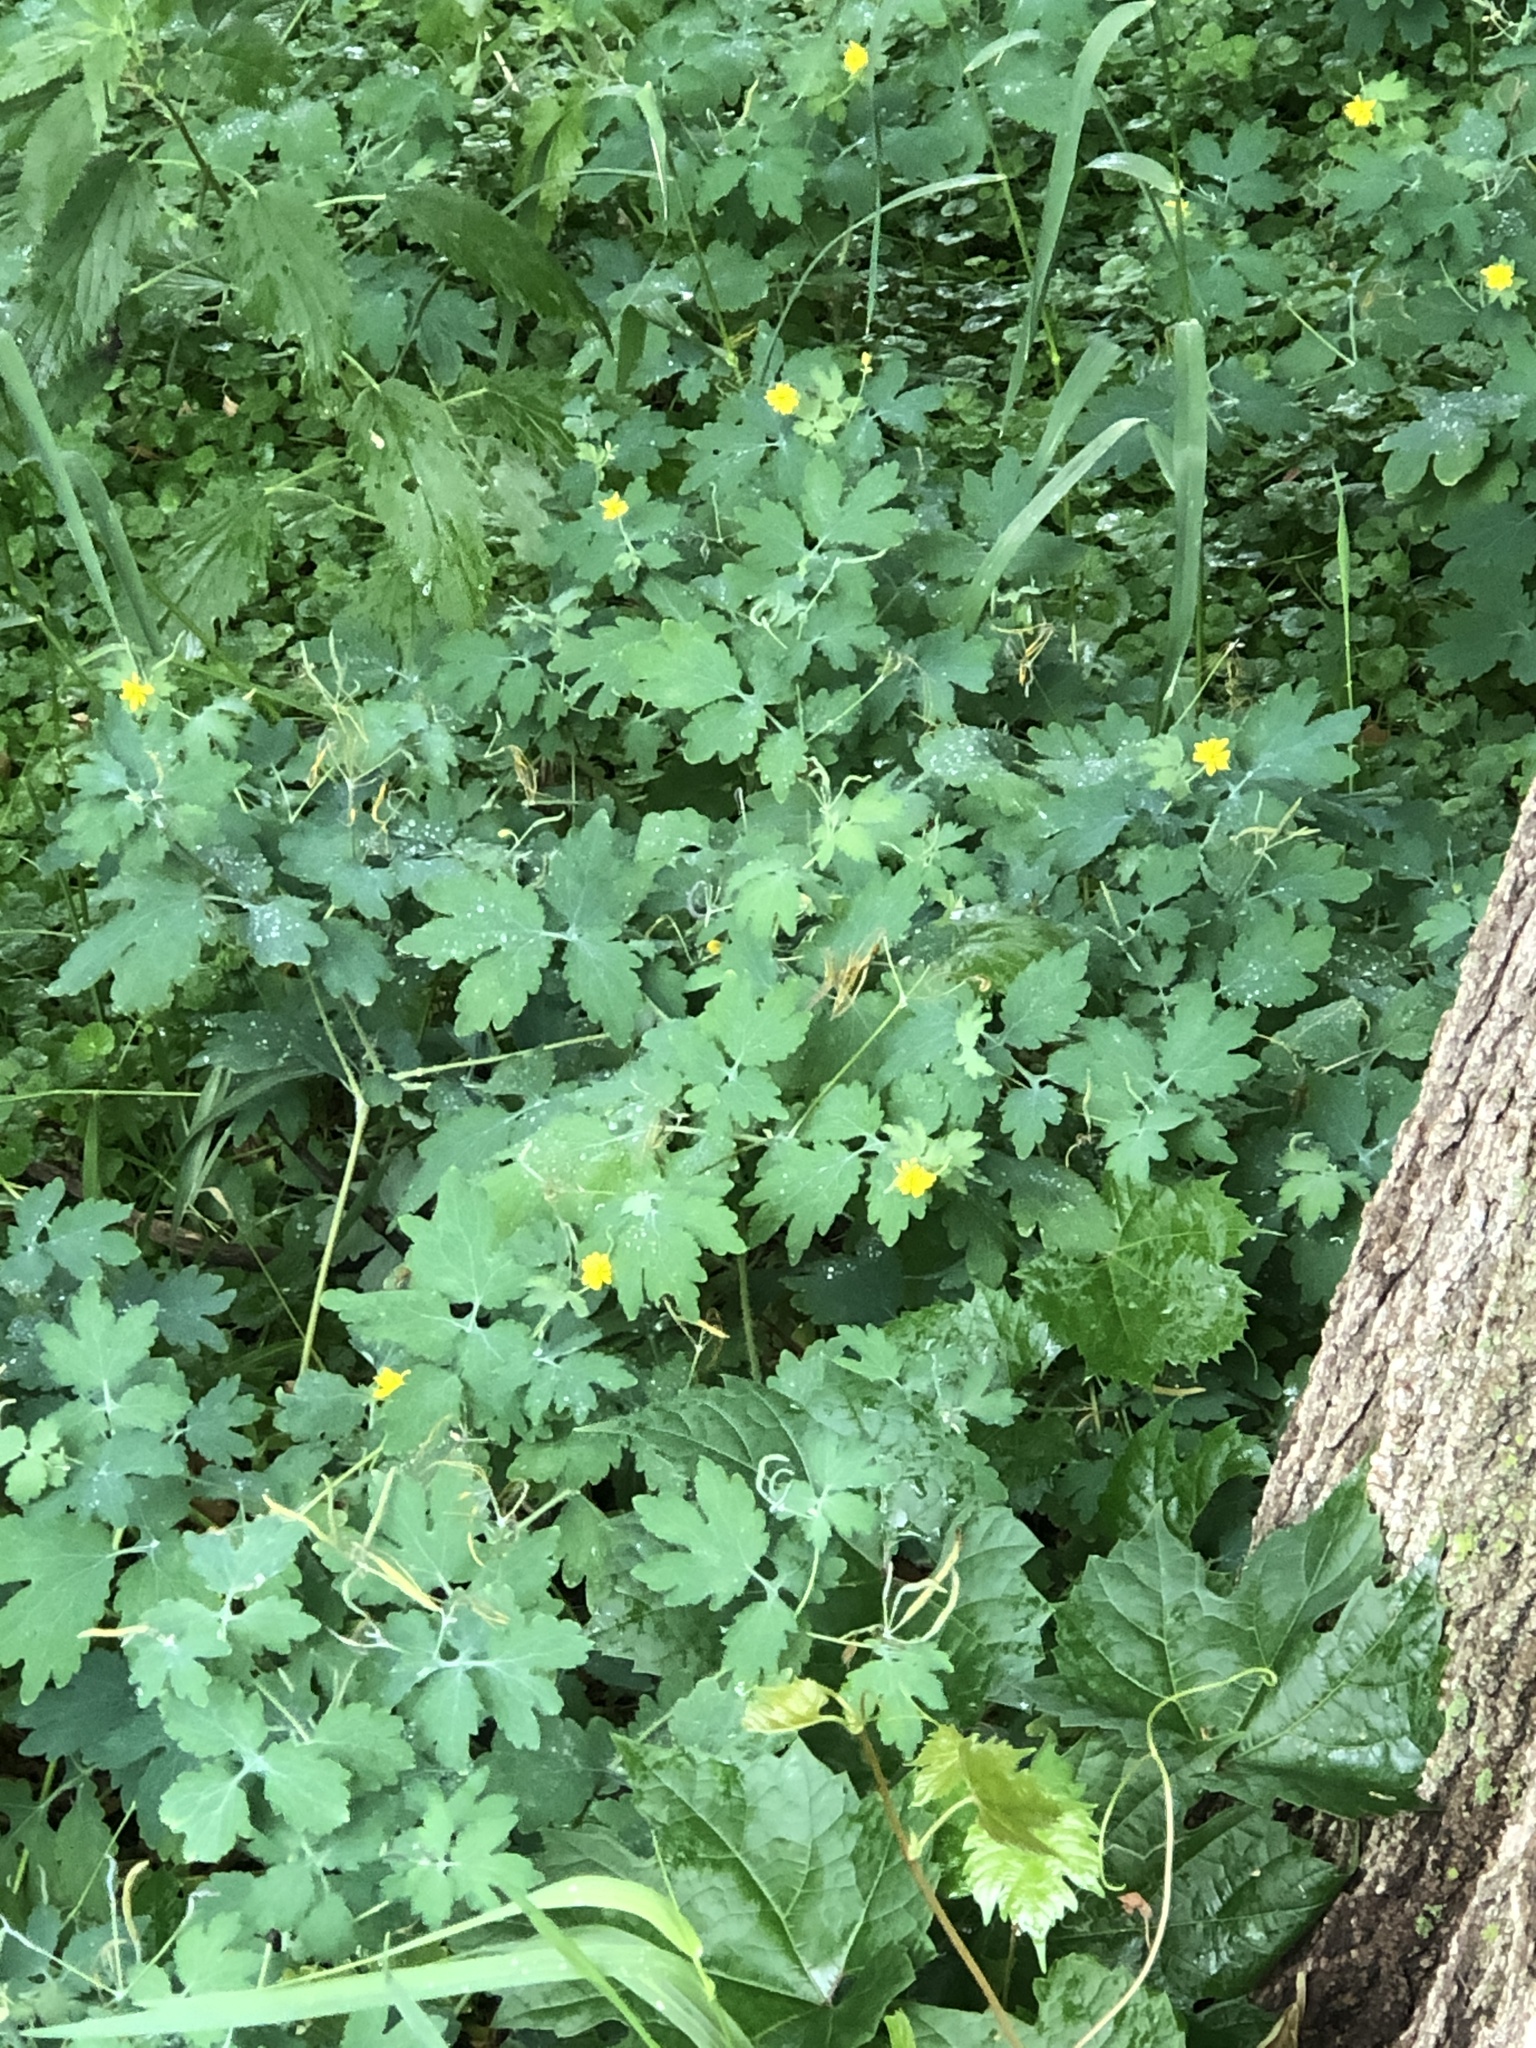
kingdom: Plantae
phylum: Tracheophyta
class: Magnoliopsida
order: Ranunculales
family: Papaveraceae
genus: Chelidonium
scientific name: Chelidonium majus
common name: Greater celandine
